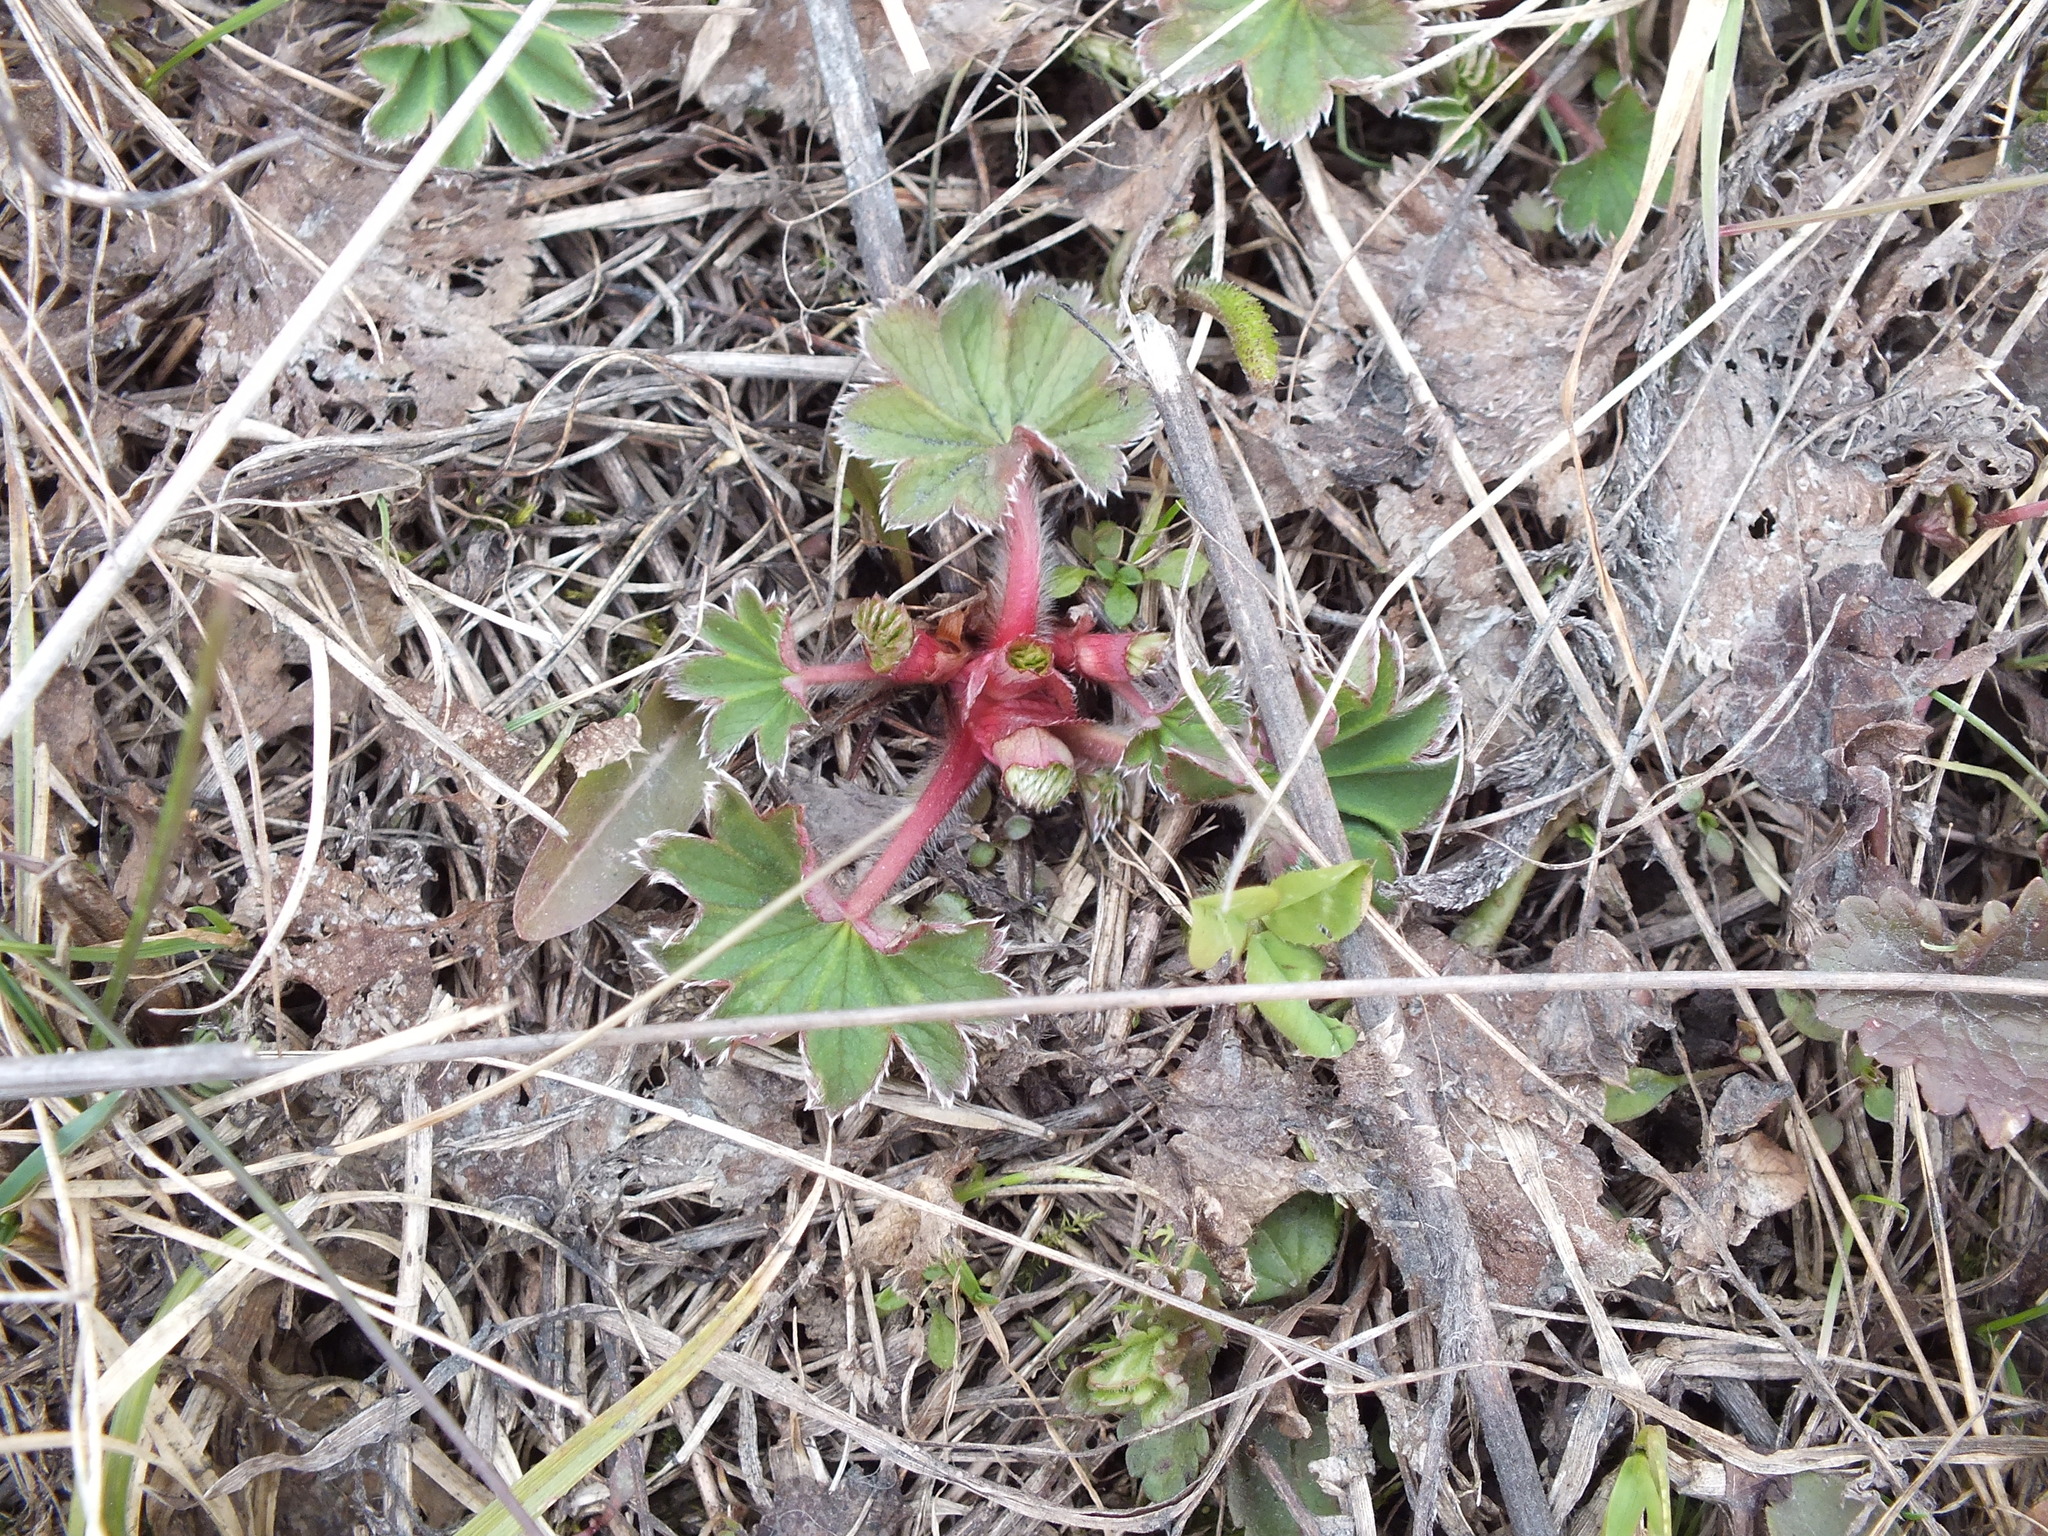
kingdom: Plantae
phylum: Tracheophyta
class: Magnoliopsida
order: Rosales
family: Rosaceae
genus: Alchemilla
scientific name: Alchemilla
